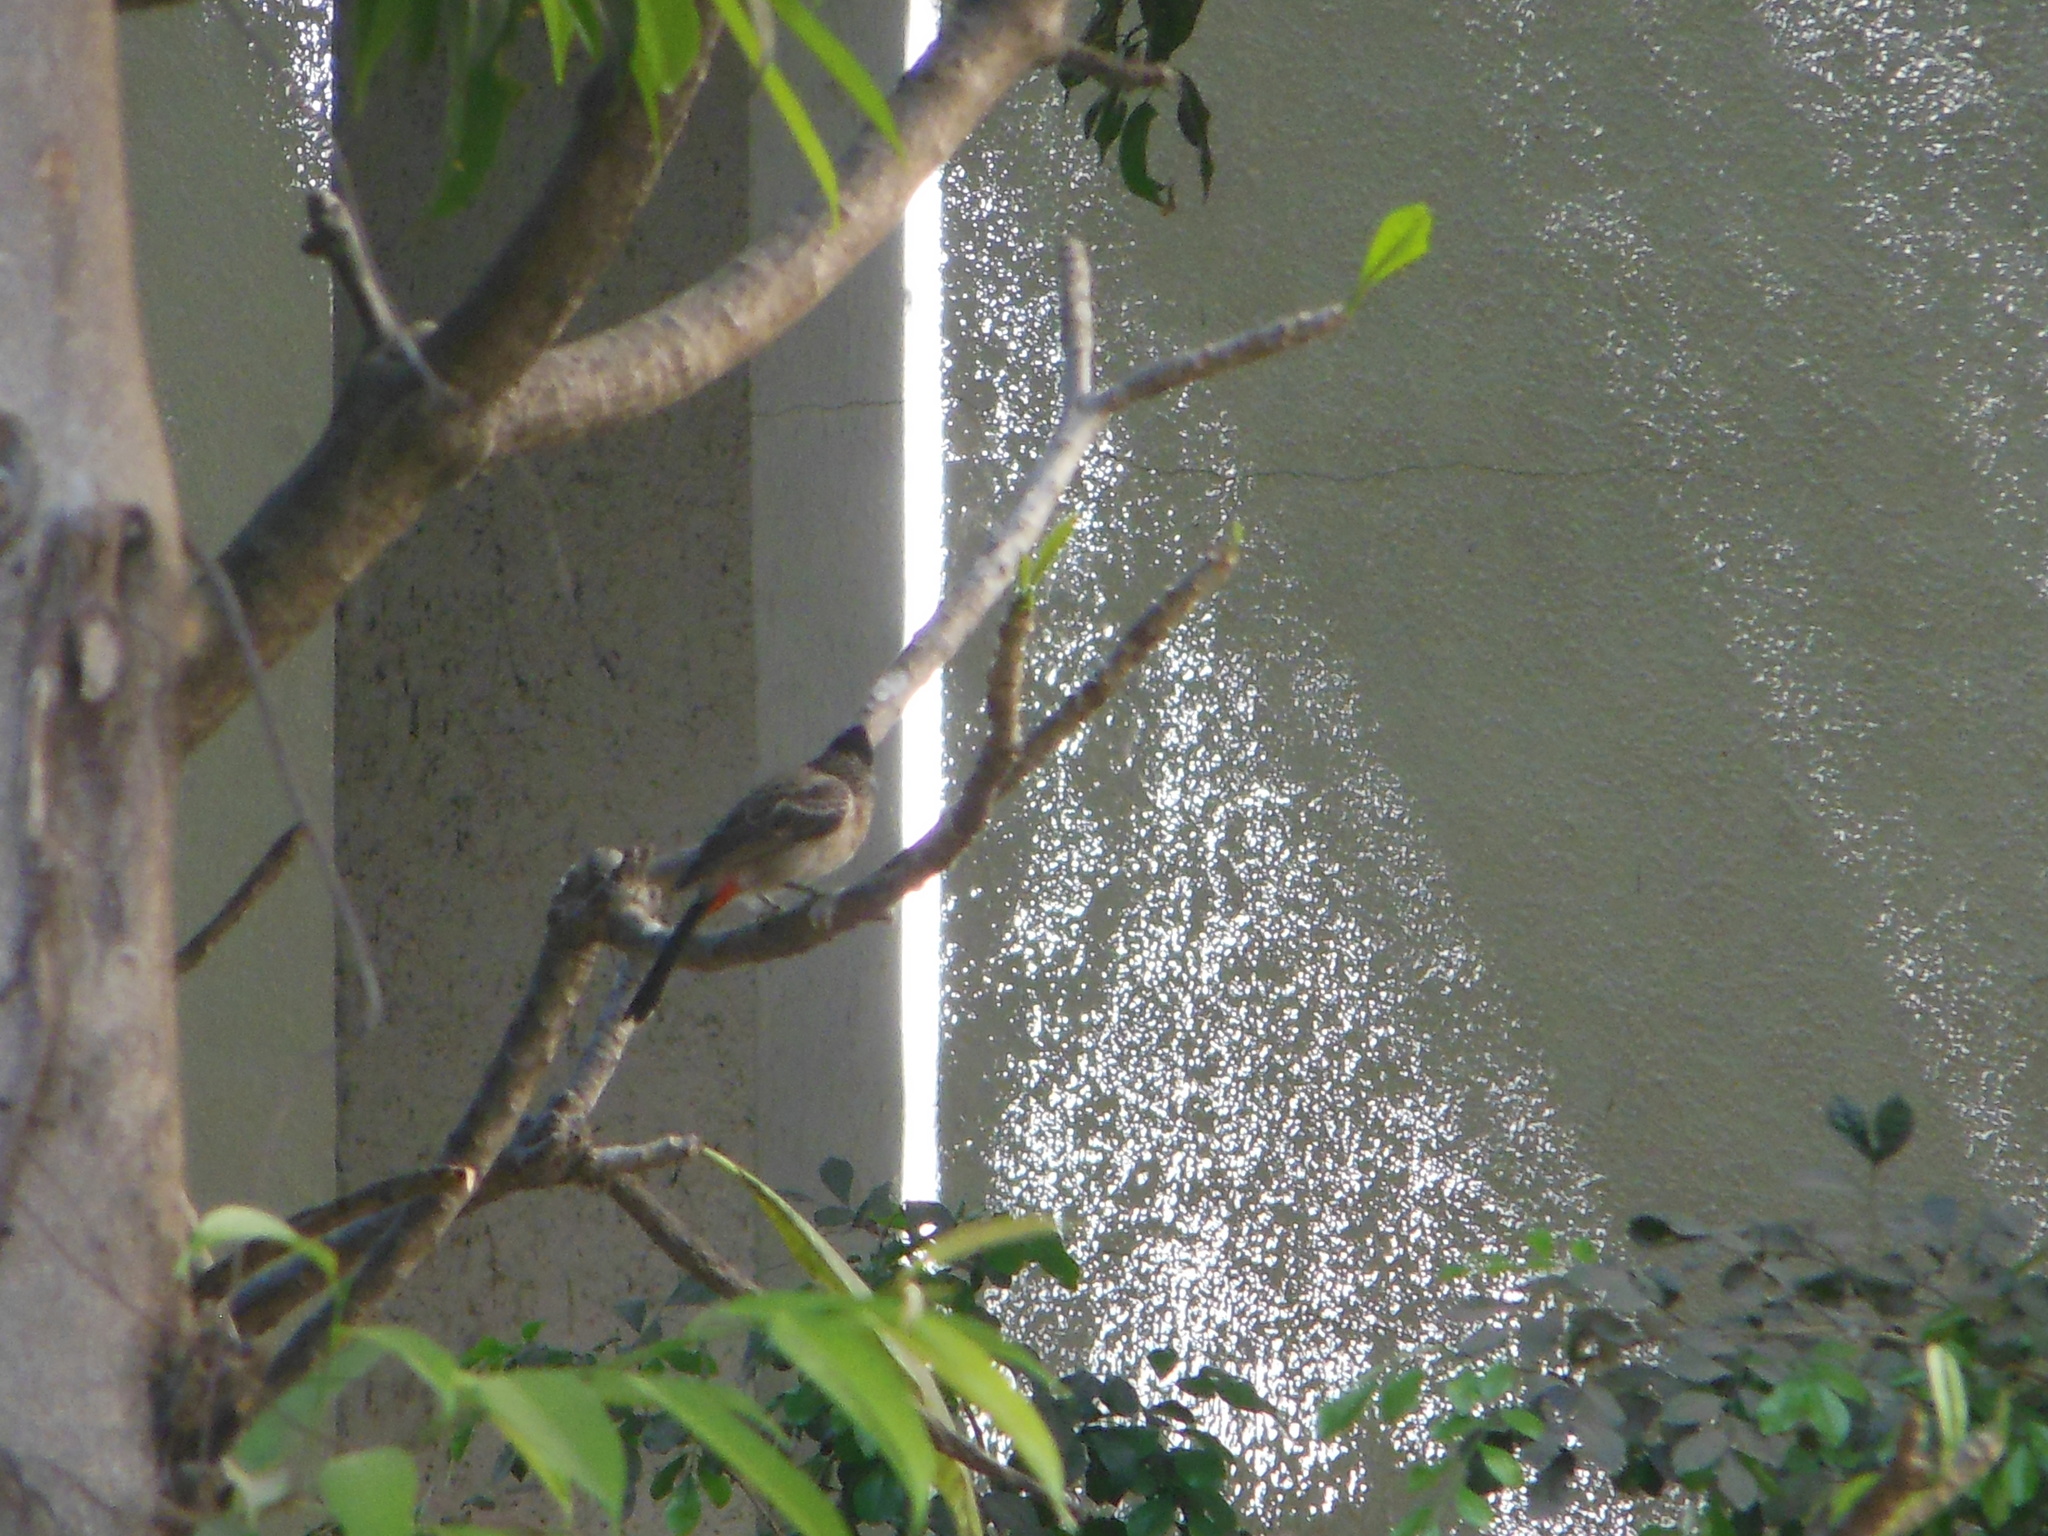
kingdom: Animalia
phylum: Chordata
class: Aves
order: Passeriformes
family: Pycnonotidae
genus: Pycnonotus
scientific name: Pycnonotus cafer
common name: Red-vented bulbul
